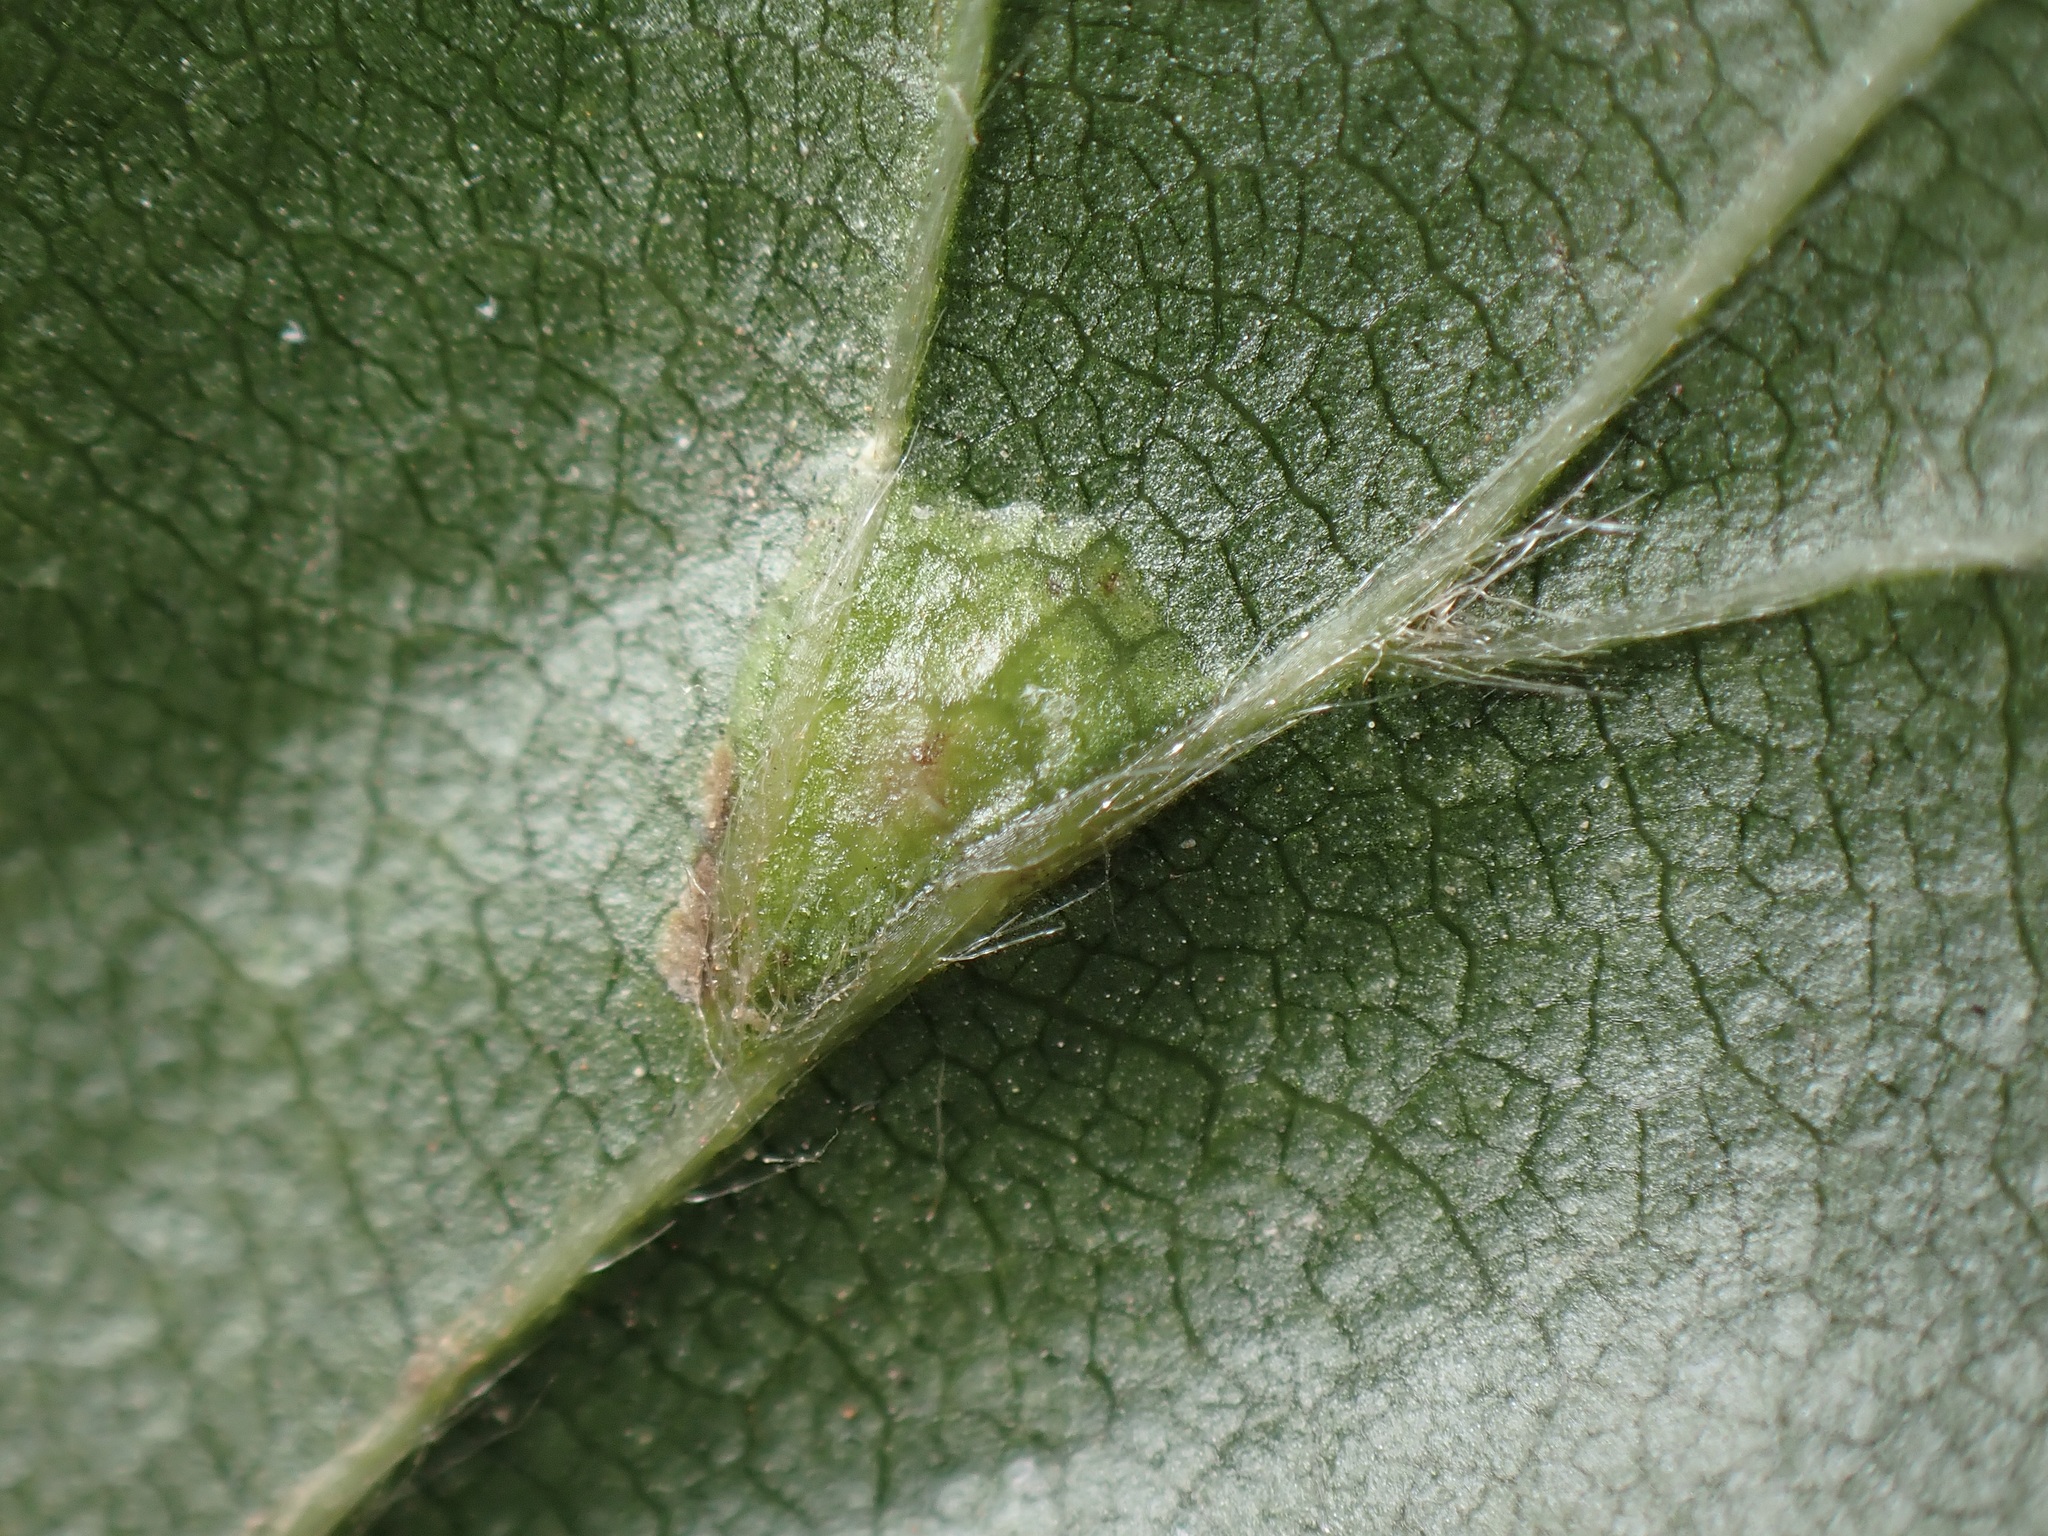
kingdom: Animalia
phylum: Arthropoda
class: Insecta
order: Diptera
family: Cecidomyiidae
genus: Hartigiola
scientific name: Hartigiola annulipes
